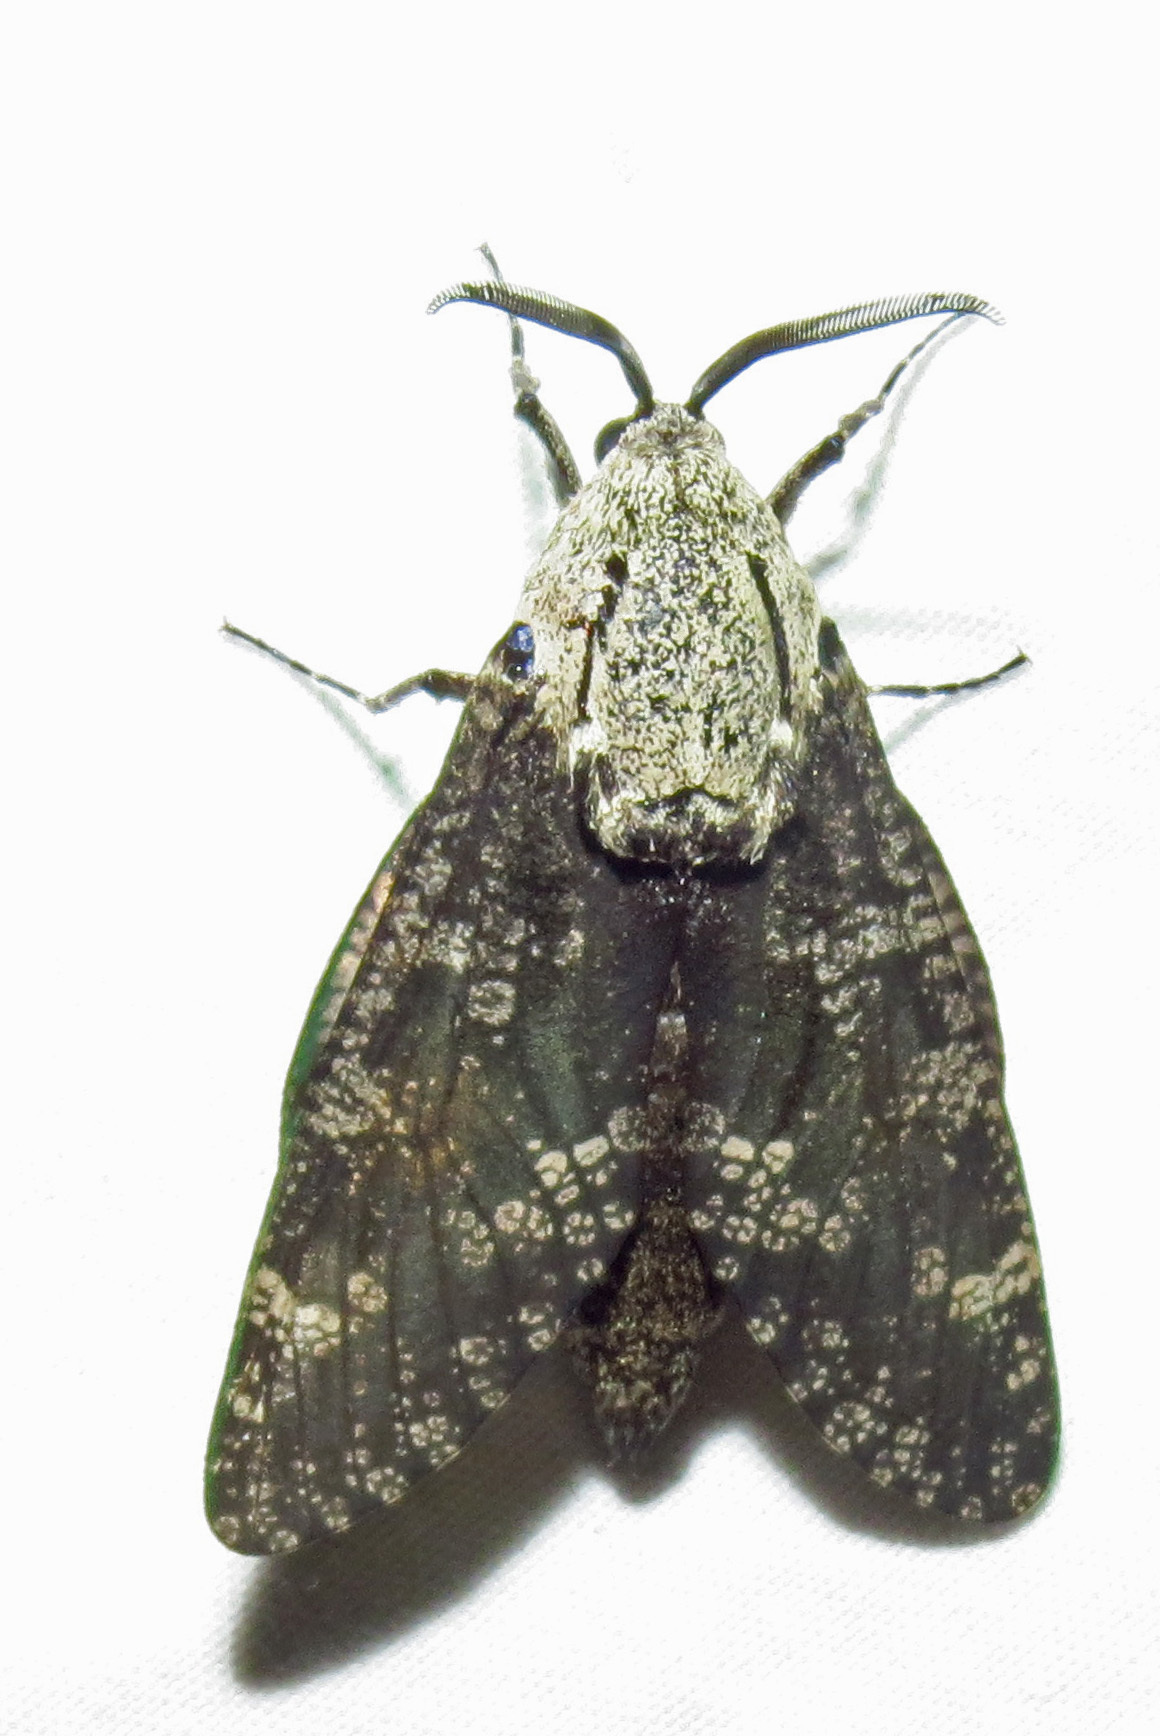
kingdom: Animalia
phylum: Arthropoda
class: Insecta
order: Lepidoptera
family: Cossidae
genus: Prionoxystus
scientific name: Prionoxystus robiniae
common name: Carpenterworm
